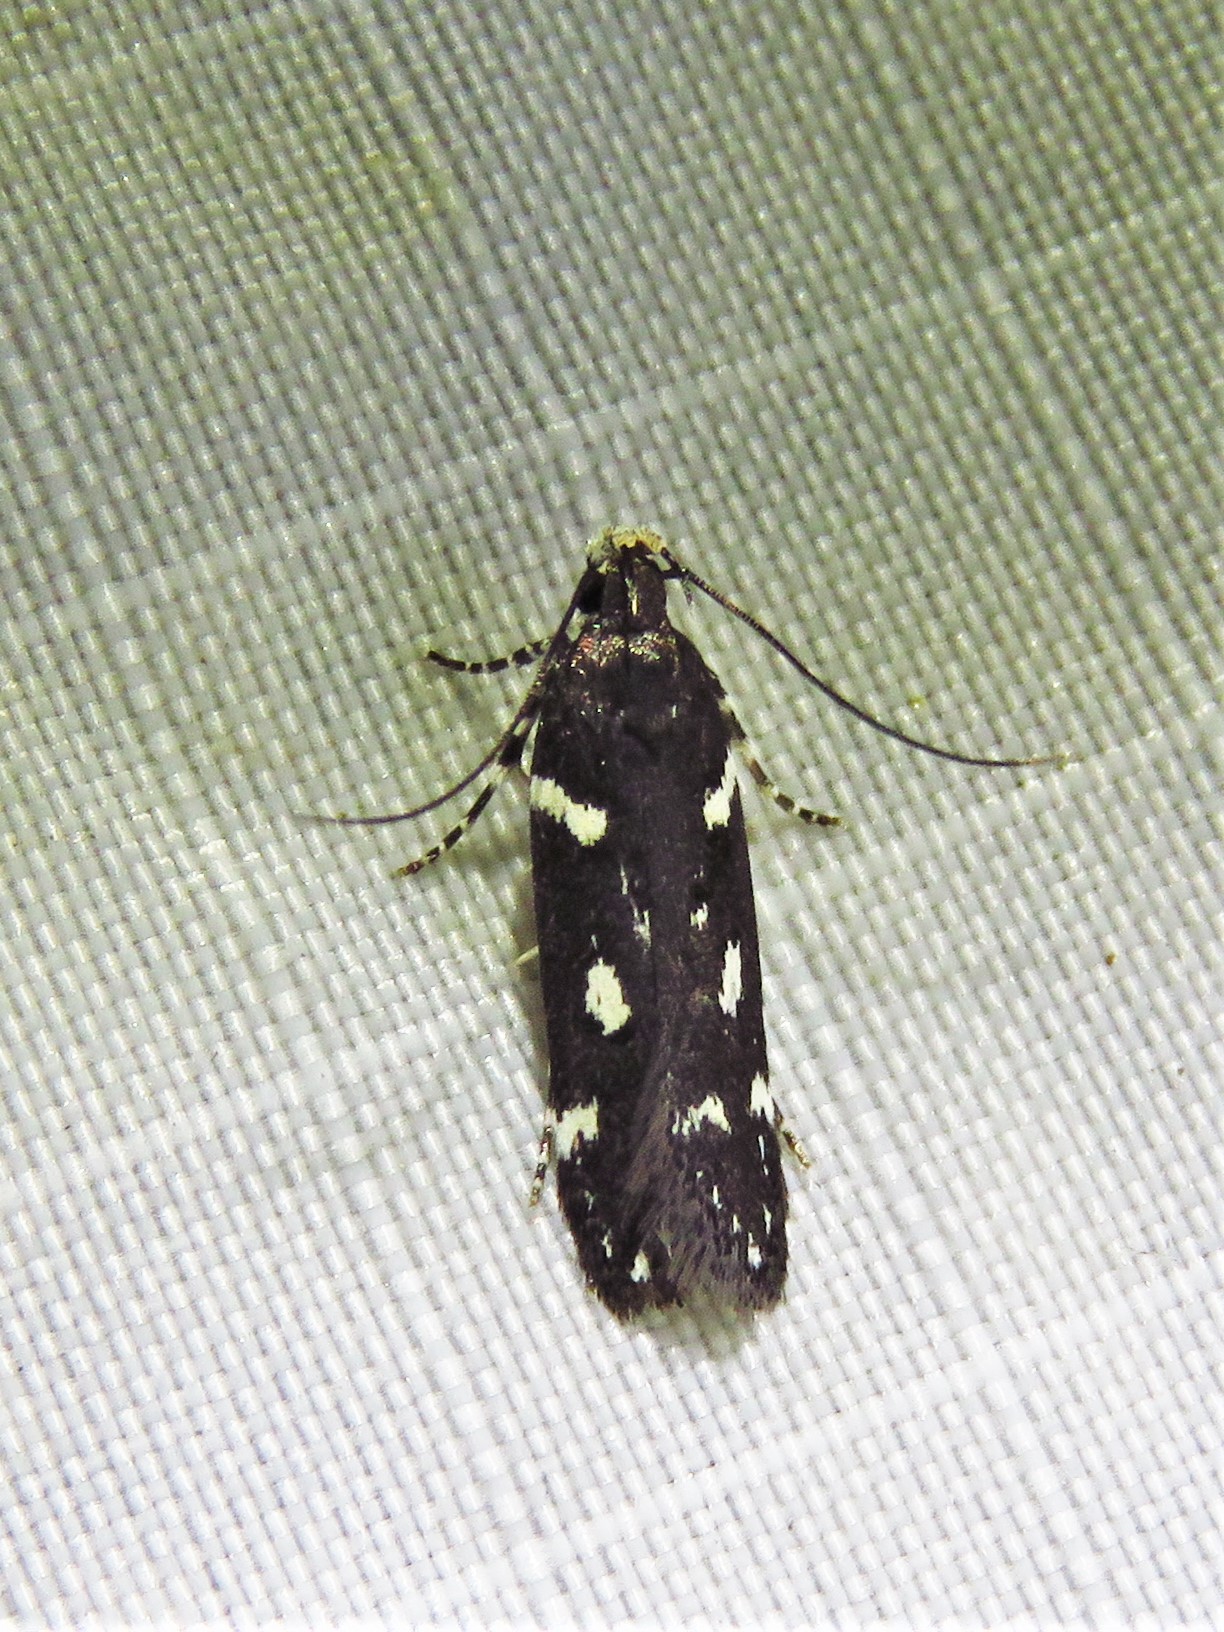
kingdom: Animalia
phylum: Arthropoda
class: Insecta
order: Lepidoptera
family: Gelechiidae
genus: Aroga
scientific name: Aroga compositella
